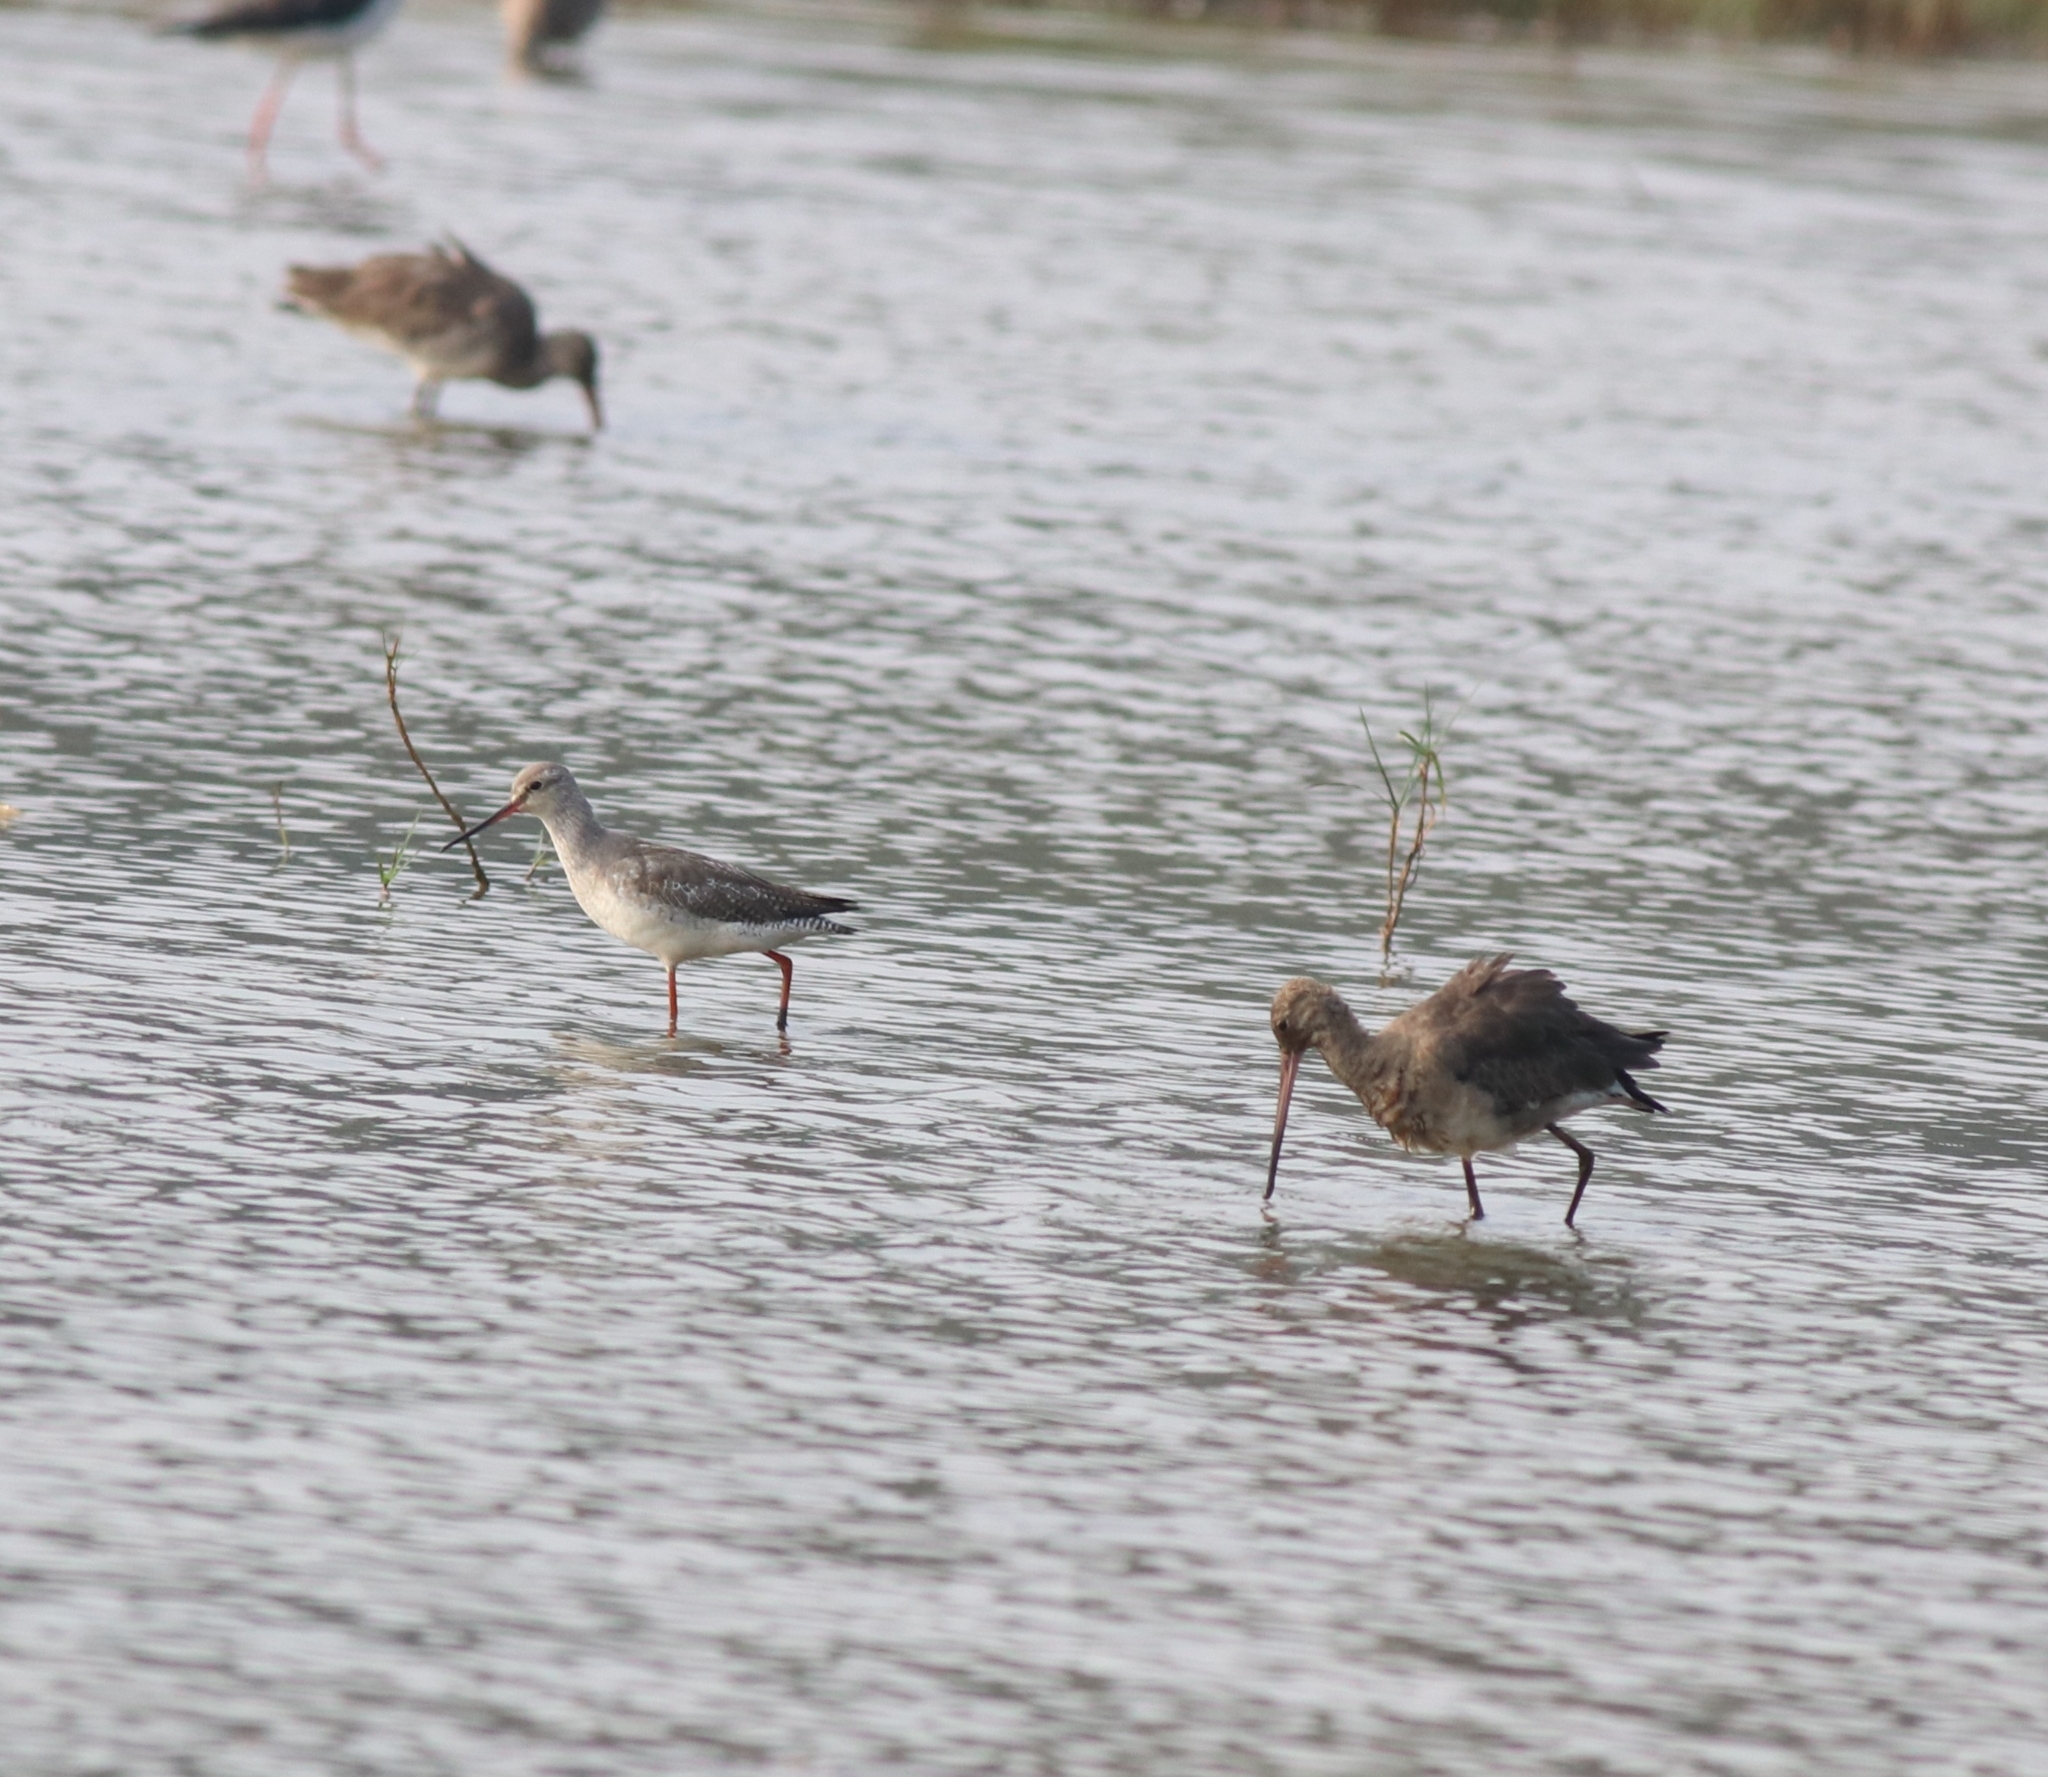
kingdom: Animalia
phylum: Chordata
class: Aves
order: Charadriiformes
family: Scolopacidae
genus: Limosa
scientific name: Limosa limosa
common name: Black-tailed godwit
